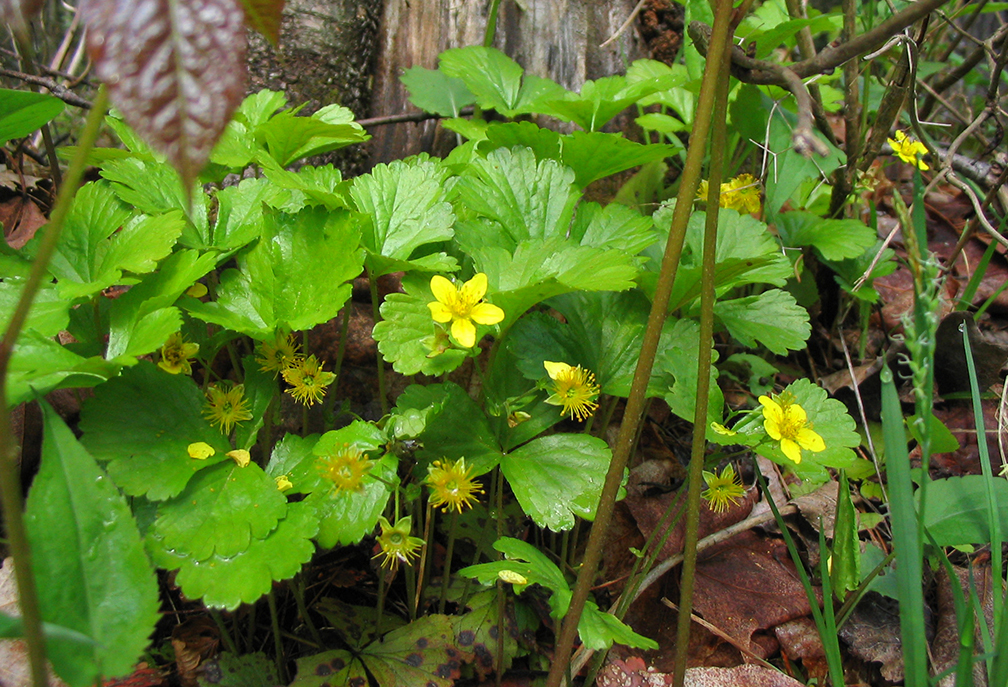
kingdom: Plantae
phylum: Tracheophyta
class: Magnoliopsida
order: Rosales
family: Rosaceae
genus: Geum
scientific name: Geum fragarioides
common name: Appalachian barren strawberry
